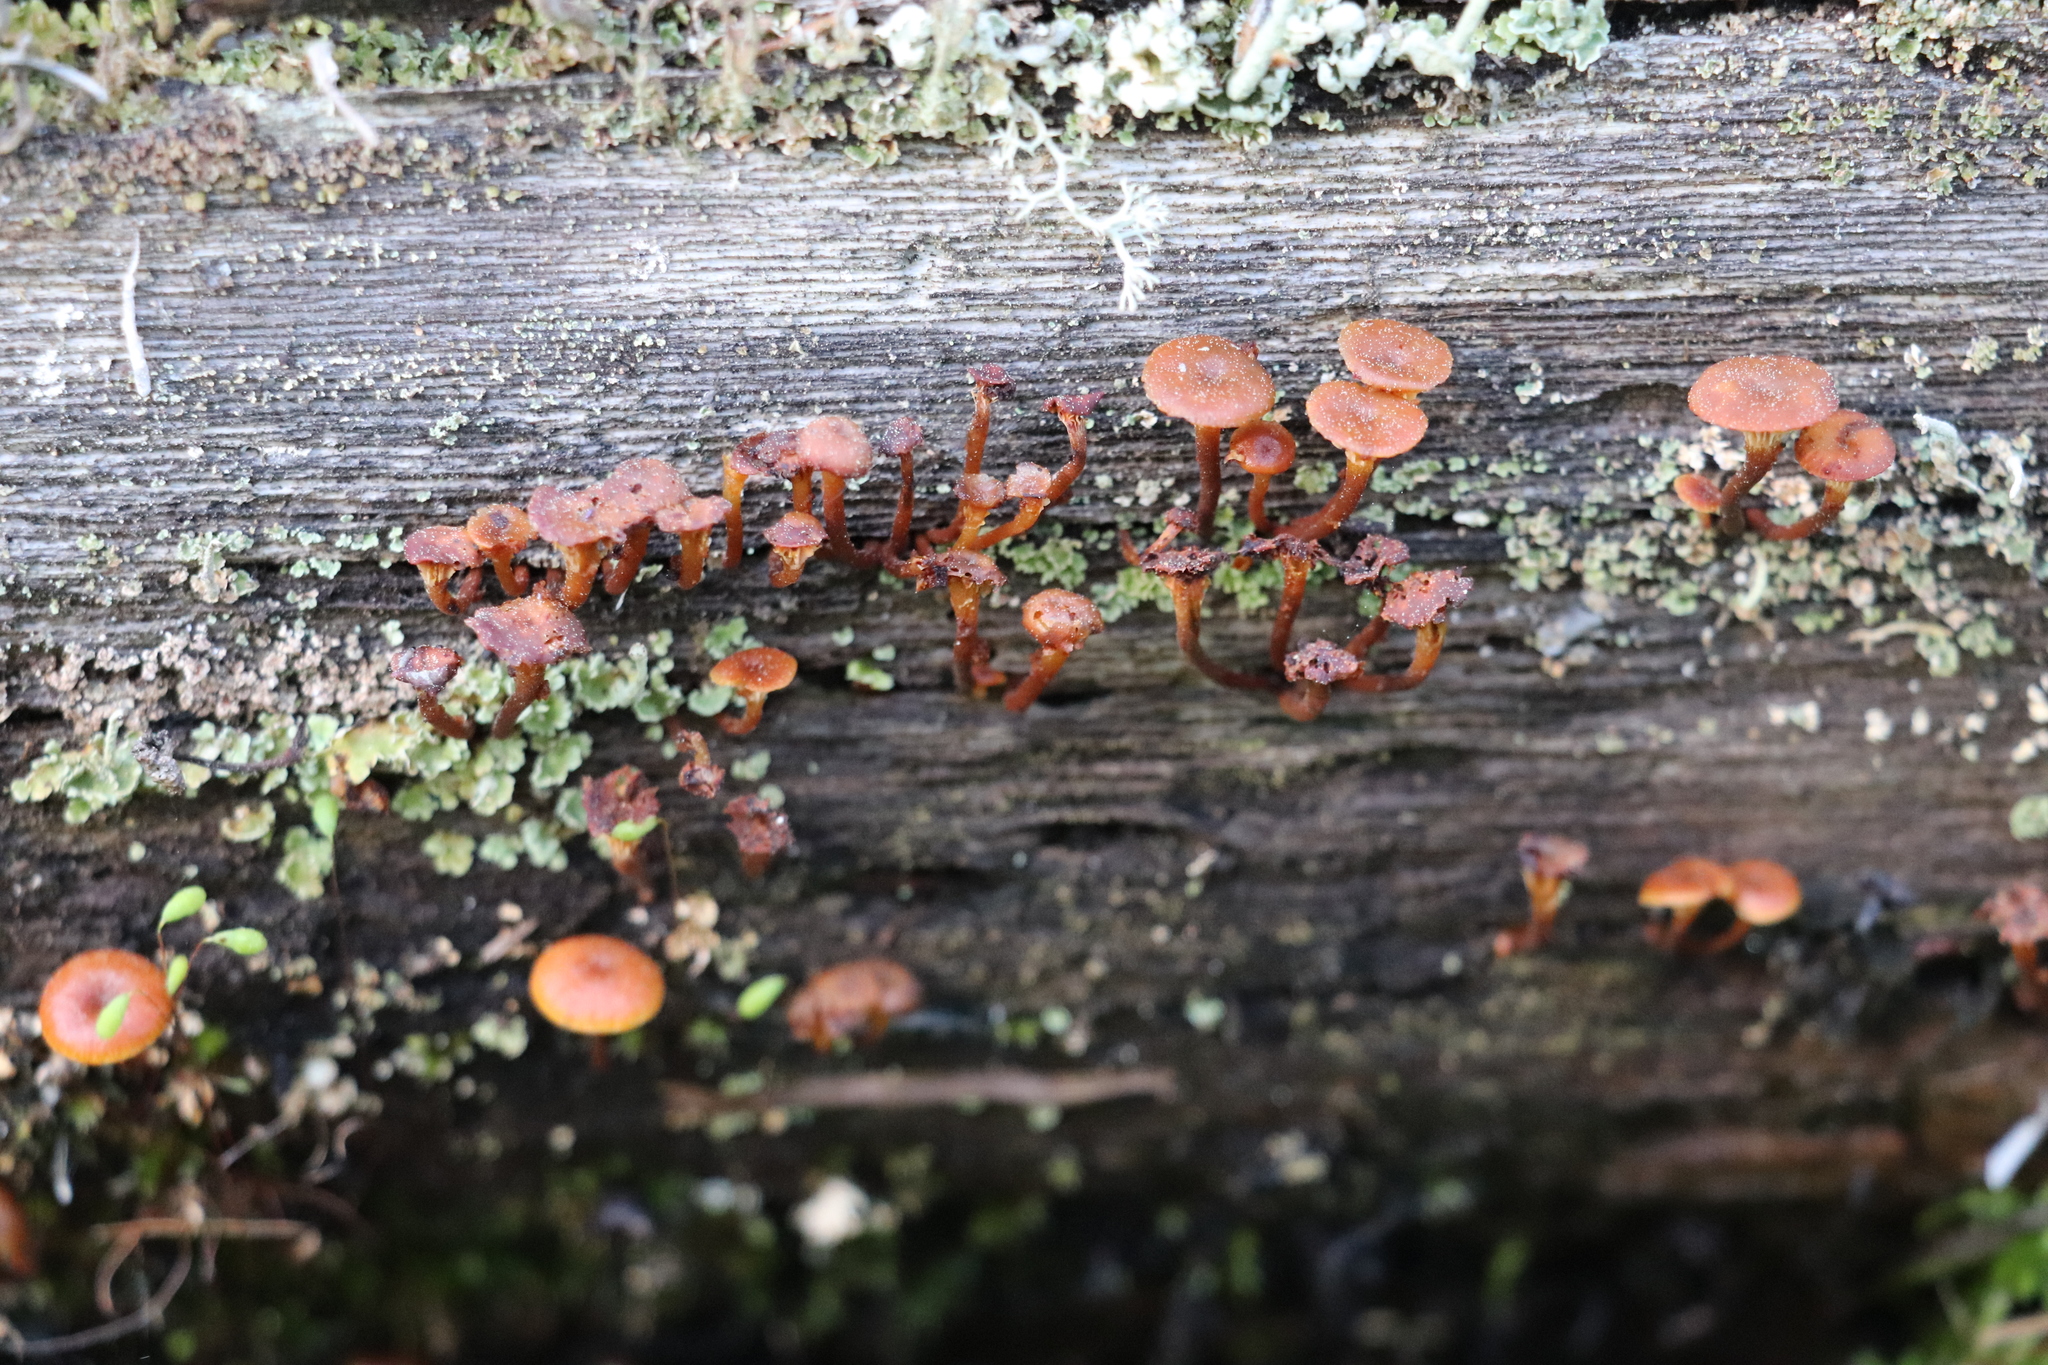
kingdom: Fungi
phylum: Basidiomycota
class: Agaricomycetes
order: Agaricales
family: Mycenaceae
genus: Xeromphalina
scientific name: Xeromphalina campanella
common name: Pinewood gingertail
